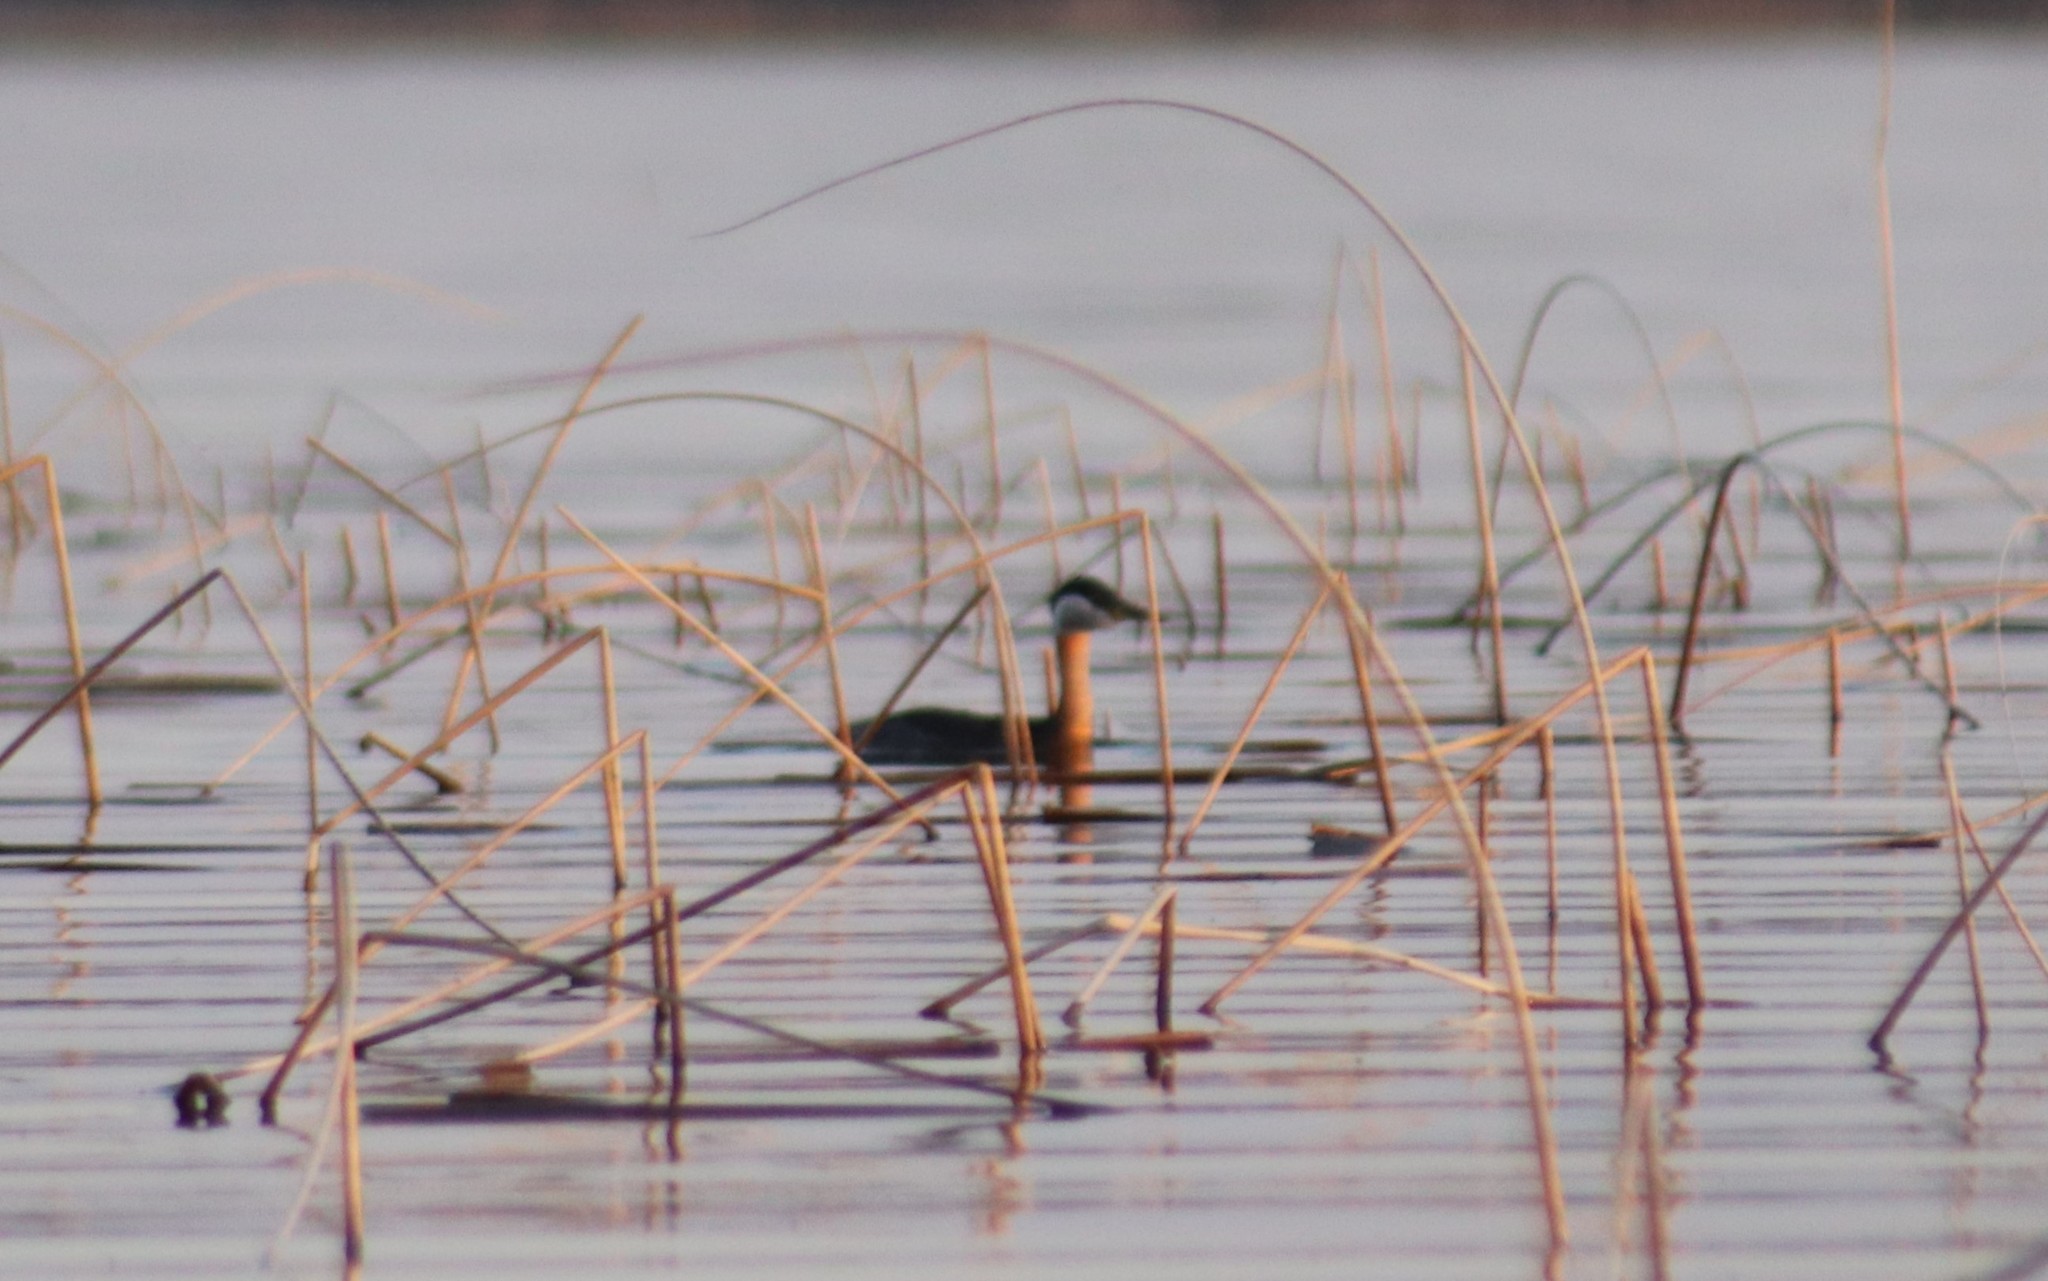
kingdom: Animalia
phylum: Chordata
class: Aves
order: Podicipediformes
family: Podicipedidae
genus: Podiceps
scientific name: Podiceps grisegena
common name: Red-necked grebe
